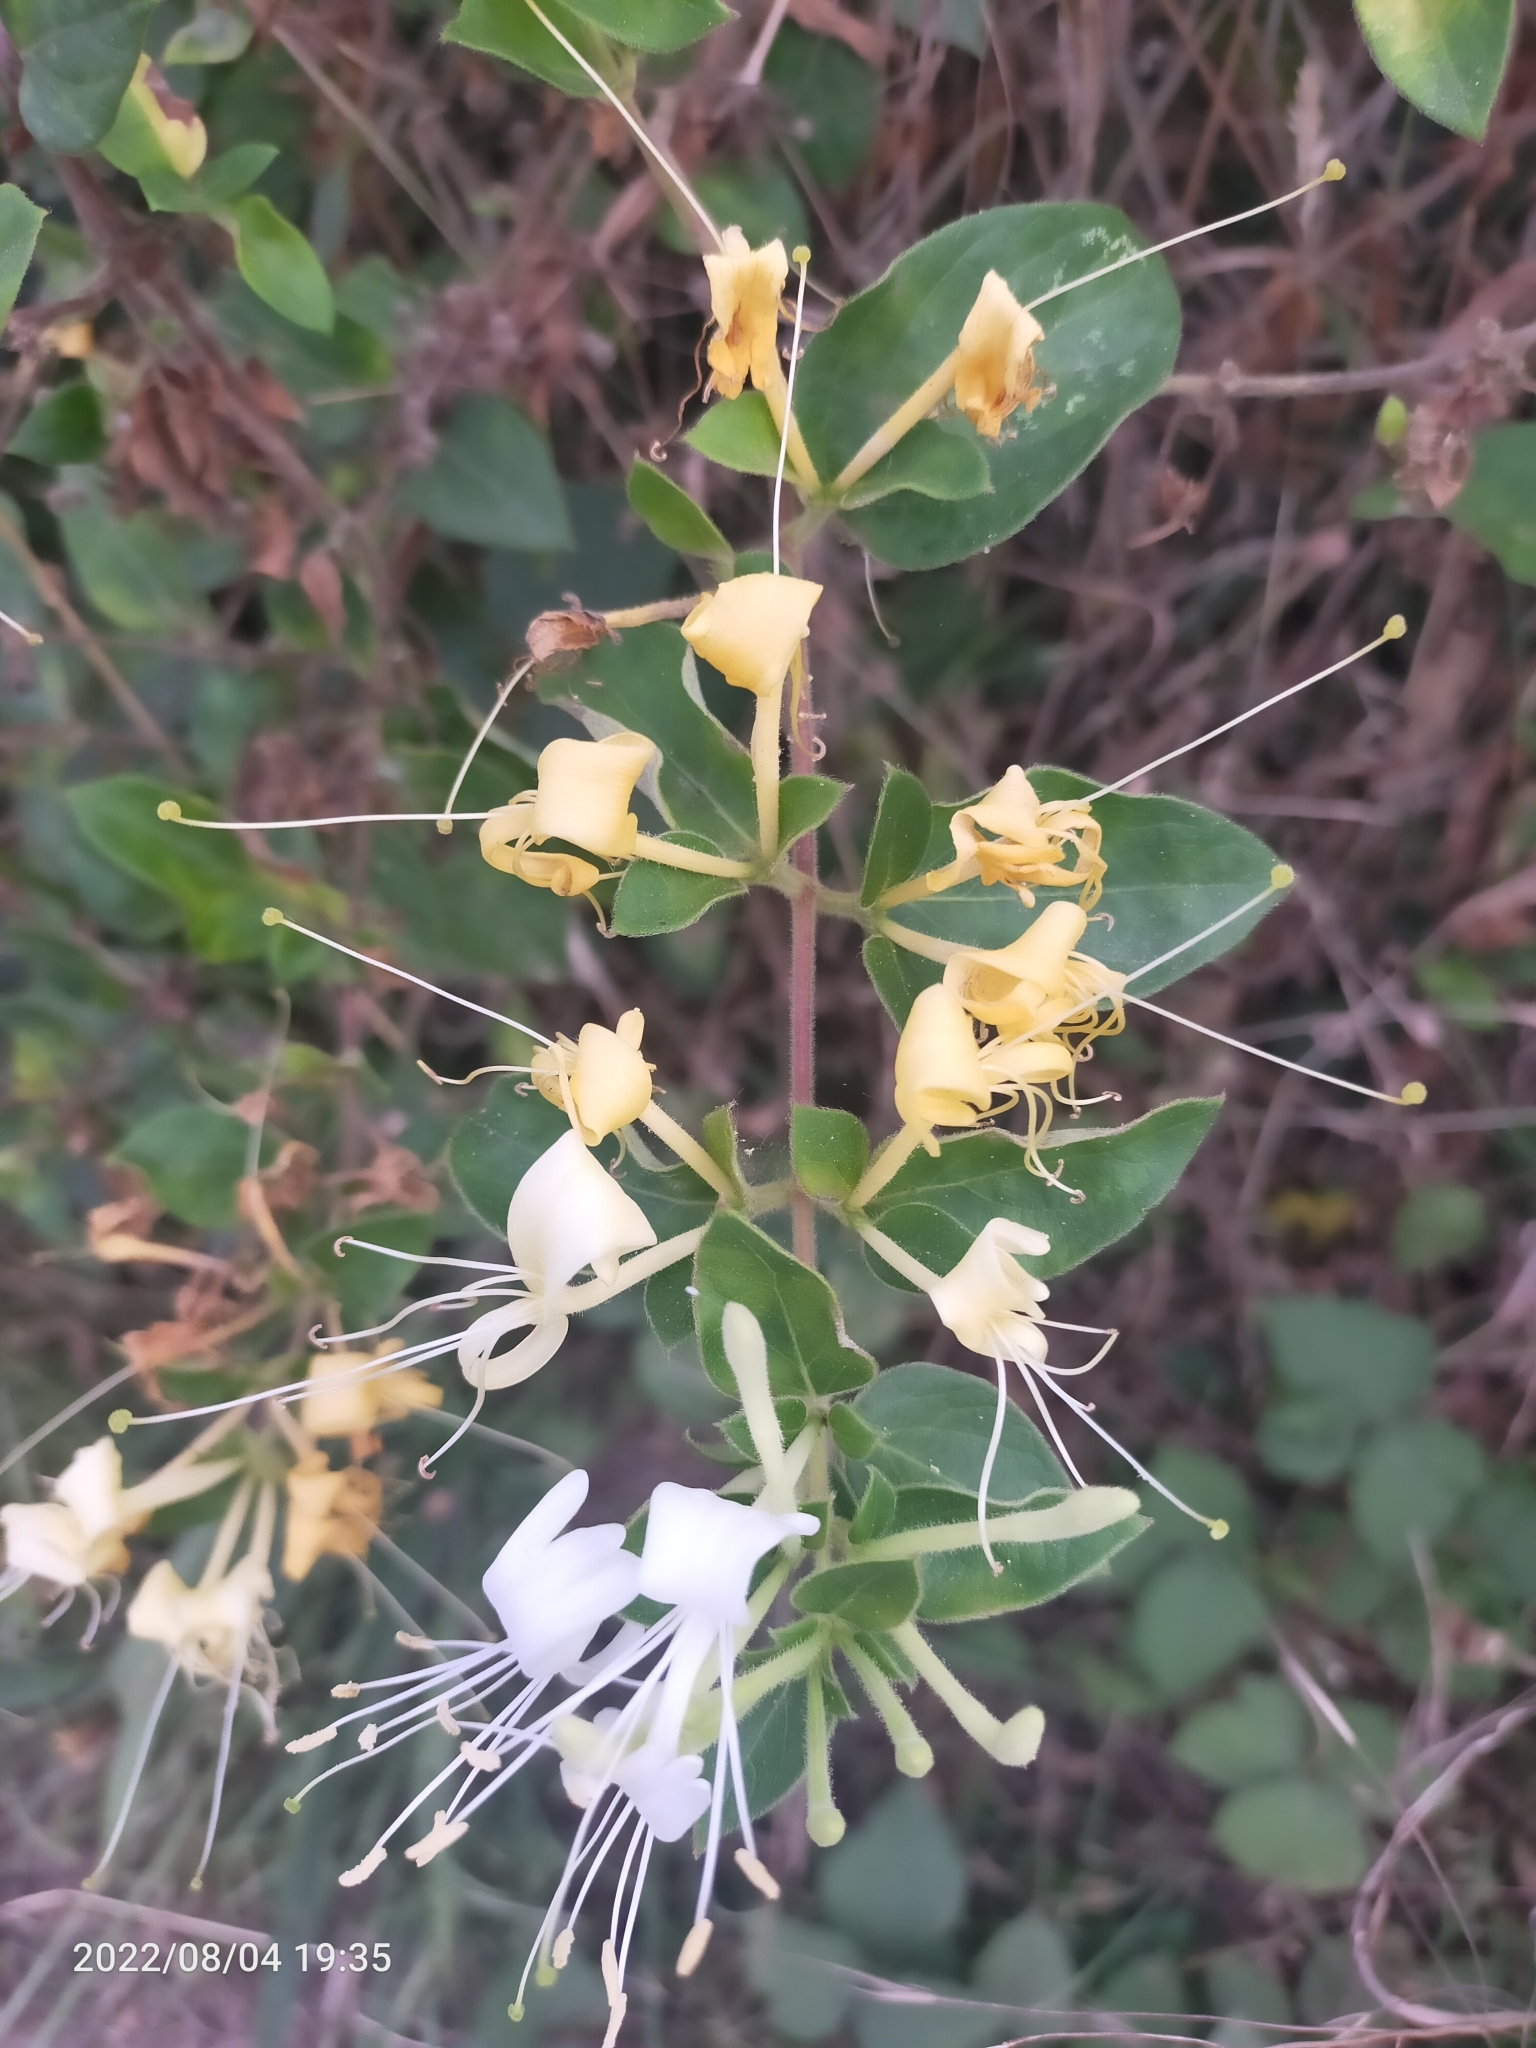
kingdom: Plantae
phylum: Tracheophyta
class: Magnoliopsida
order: Dipsacales
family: Caprifoliaceae
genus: Lonicera
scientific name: Lonicera japonica
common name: Japanese honeysuckle
